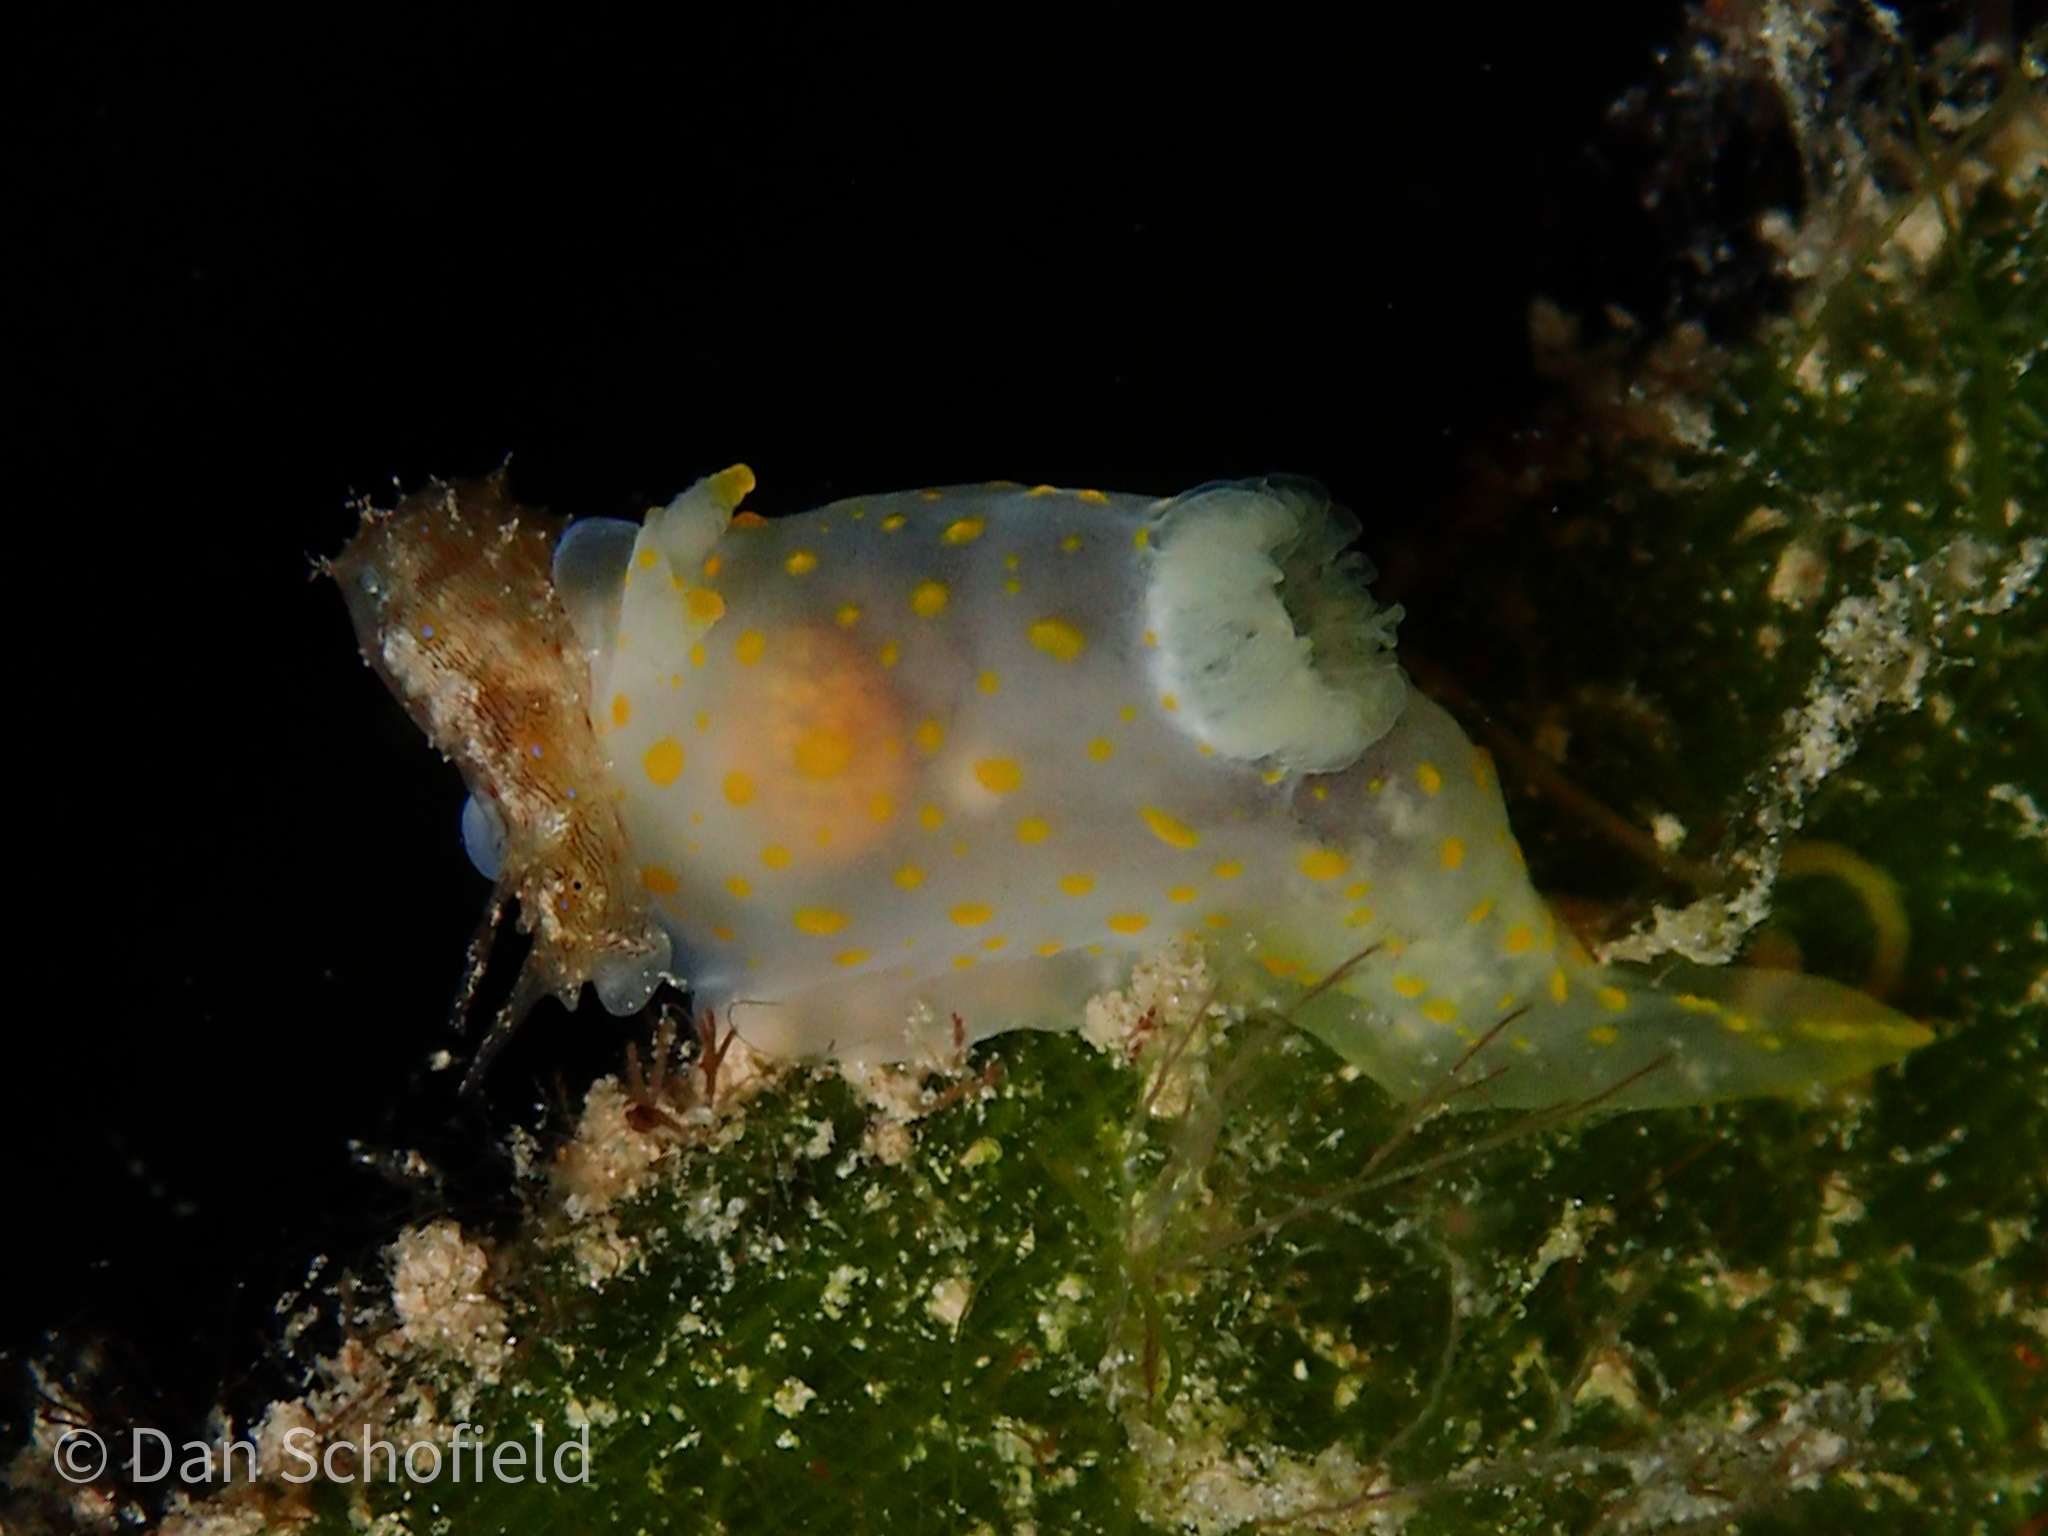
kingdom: Animalia
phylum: Mollusca
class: Gastropoda
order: Aplysiida
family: Aplysiidae
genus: Stylocheilus
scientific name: Stylocheilus striatus
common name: Striated seahare
